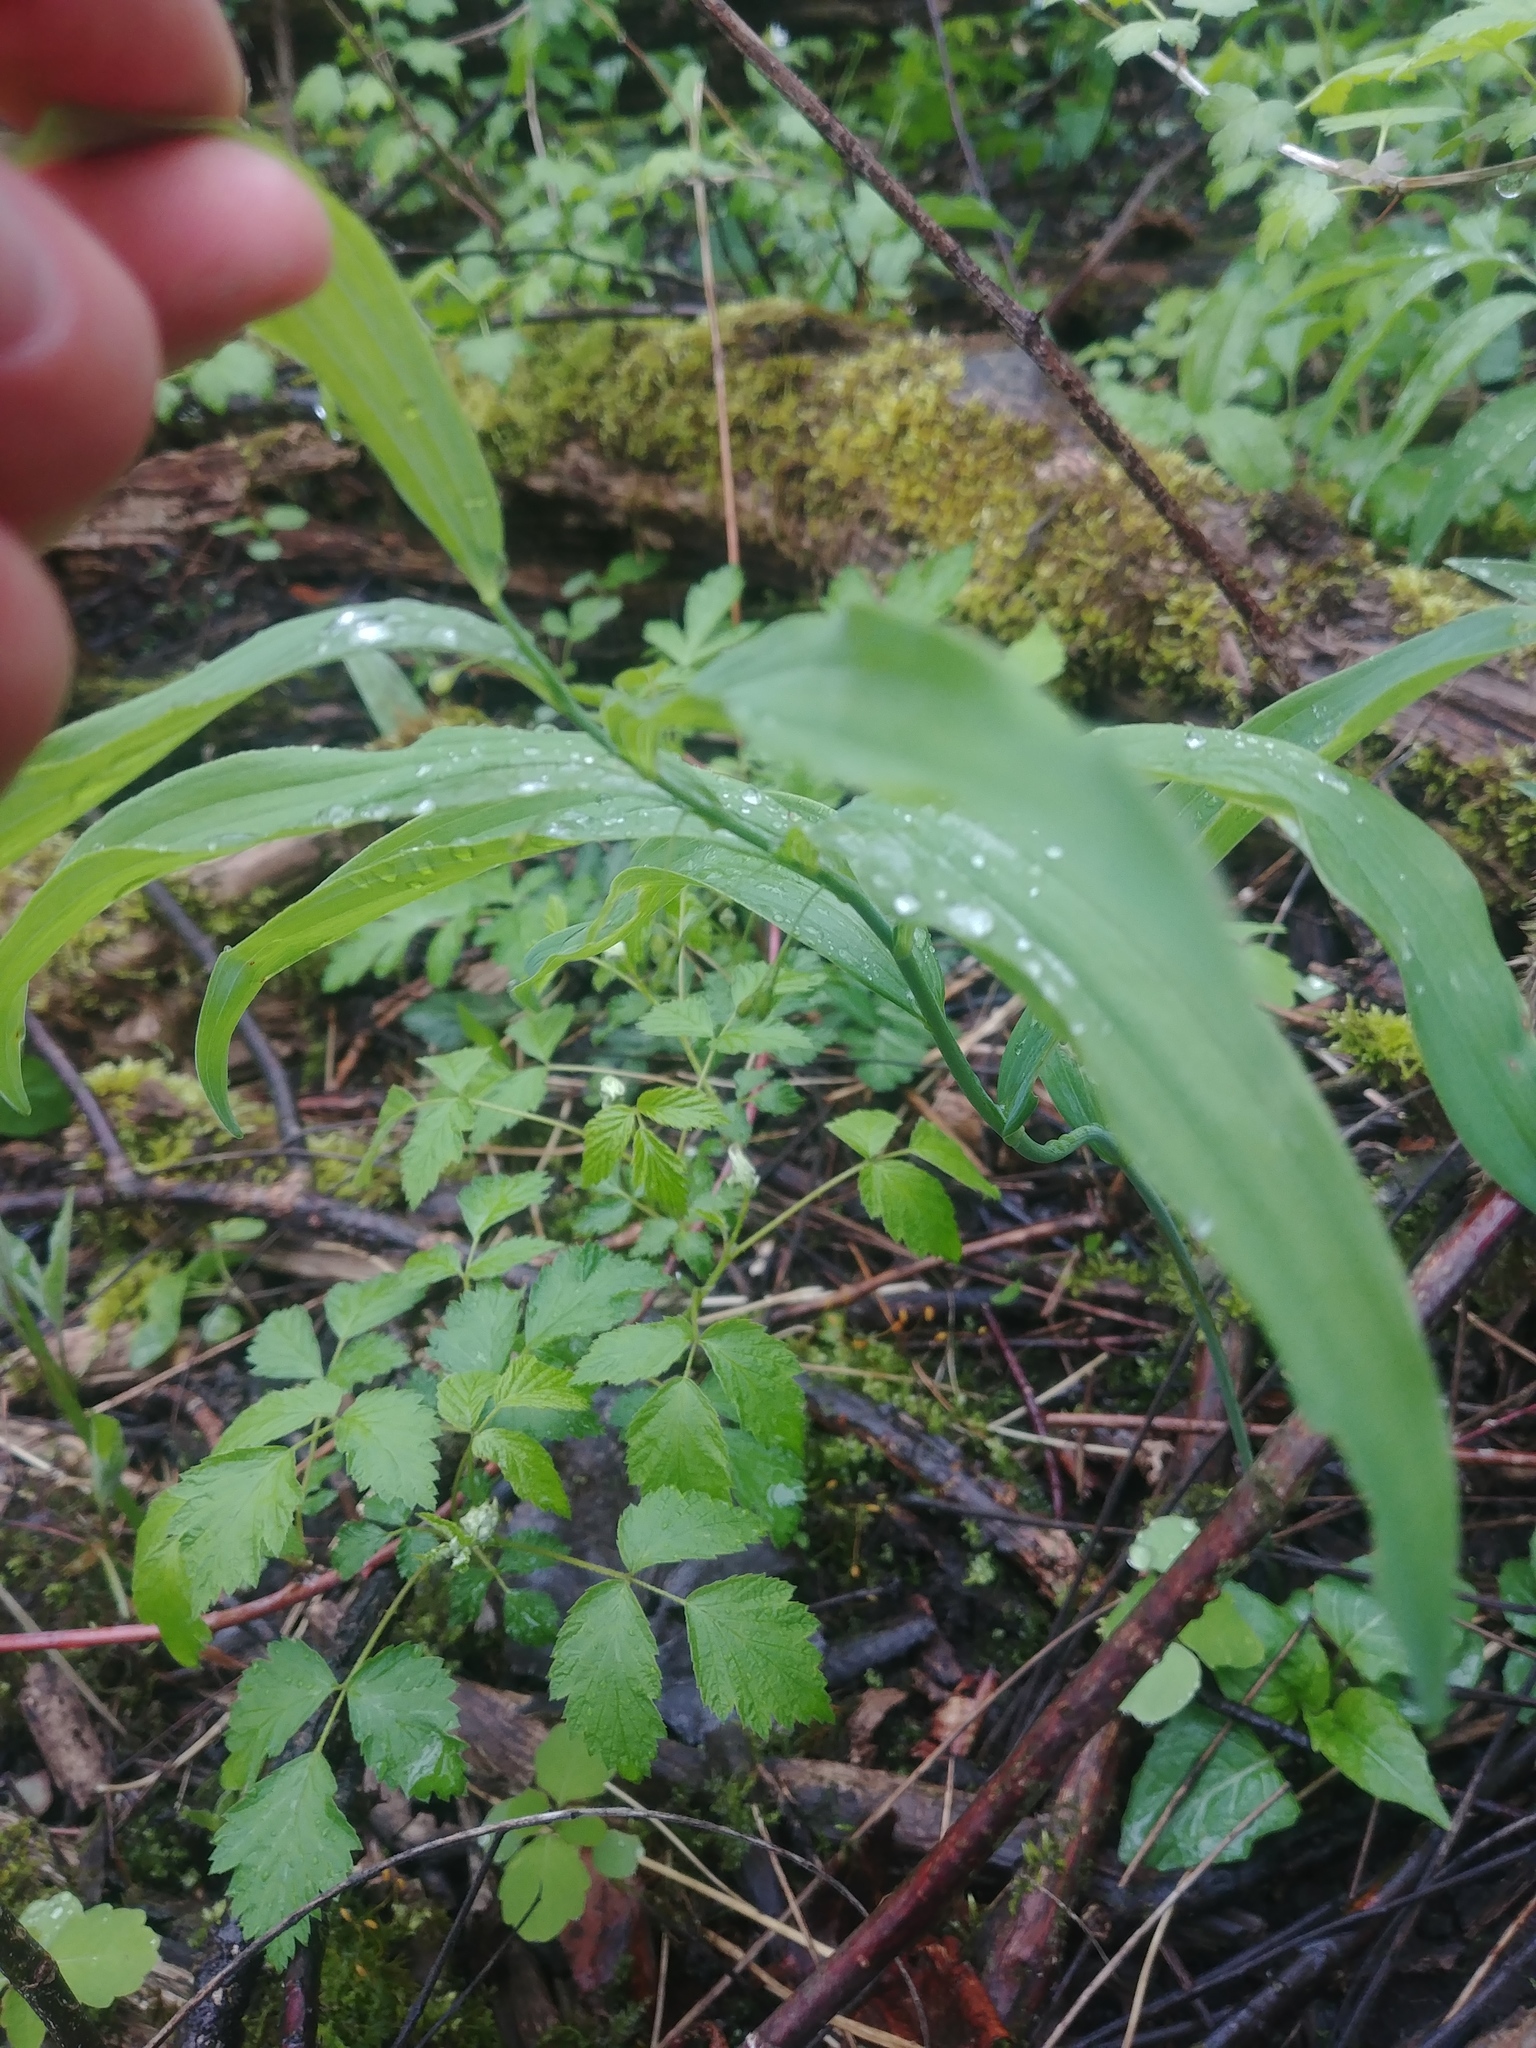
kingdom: Plantae
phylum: Tracheophyta
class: Liliopsida
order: Asparagales
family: Asparagaceae
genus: Polygonatum
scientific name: Polygonatum biflorum
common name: American solomon's-seal
